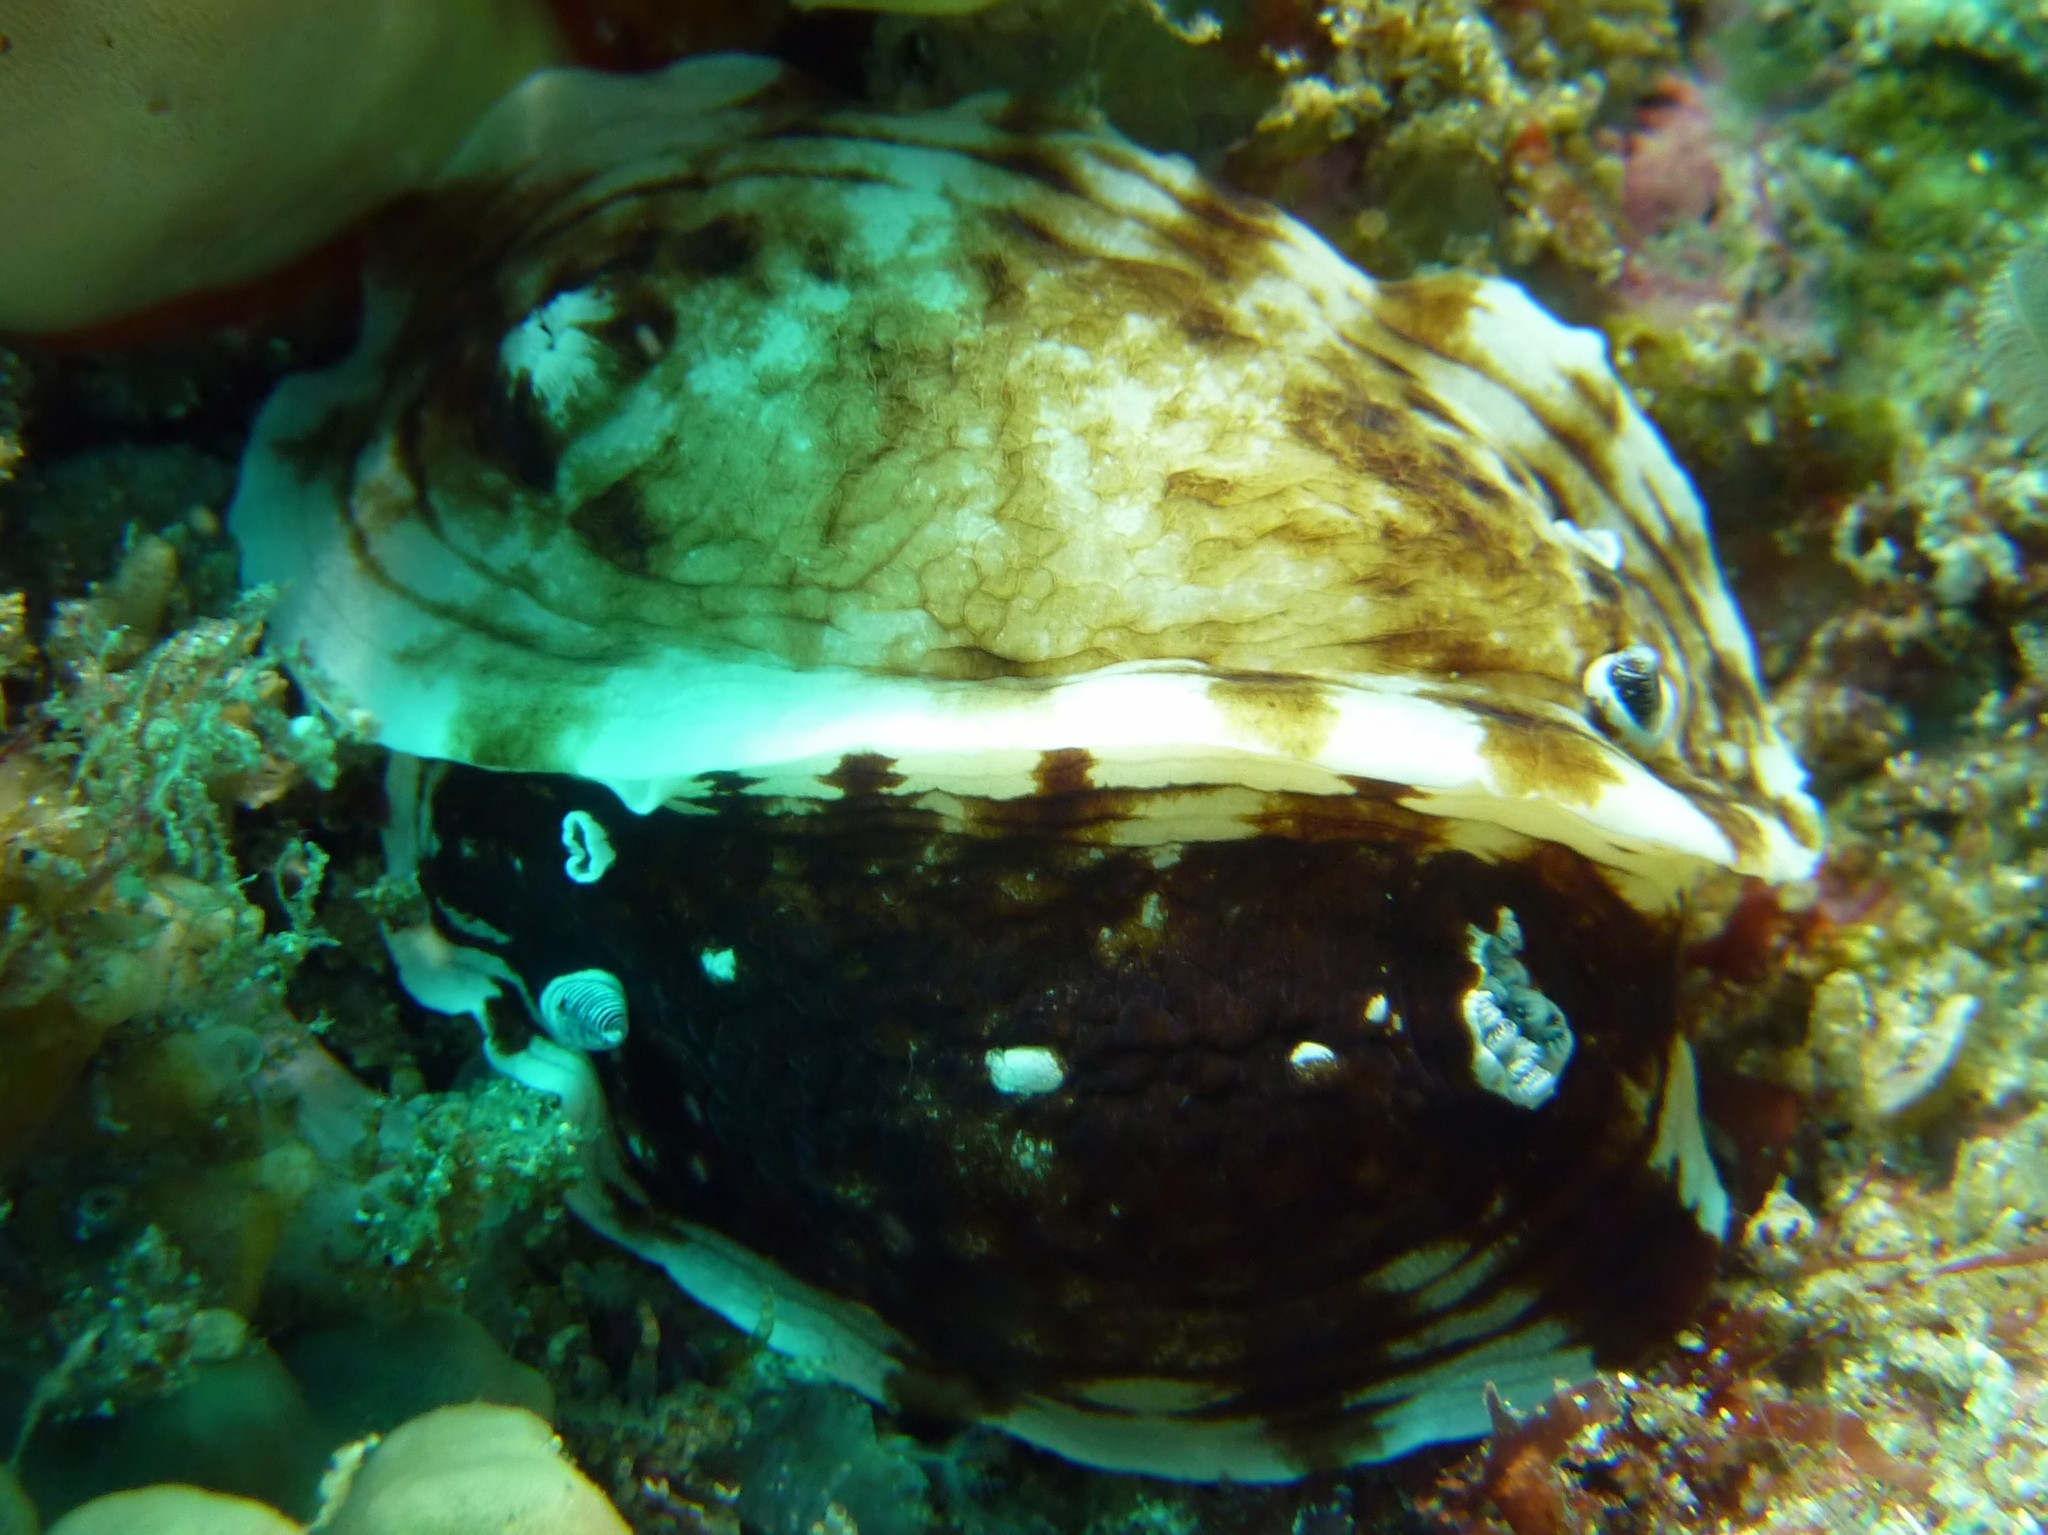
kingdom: Animalia
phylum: Mollusca
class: Gastropoda
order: Nudibranchia
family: Dorididae
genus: Aphelodoris
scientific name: Aphelodoris varia
